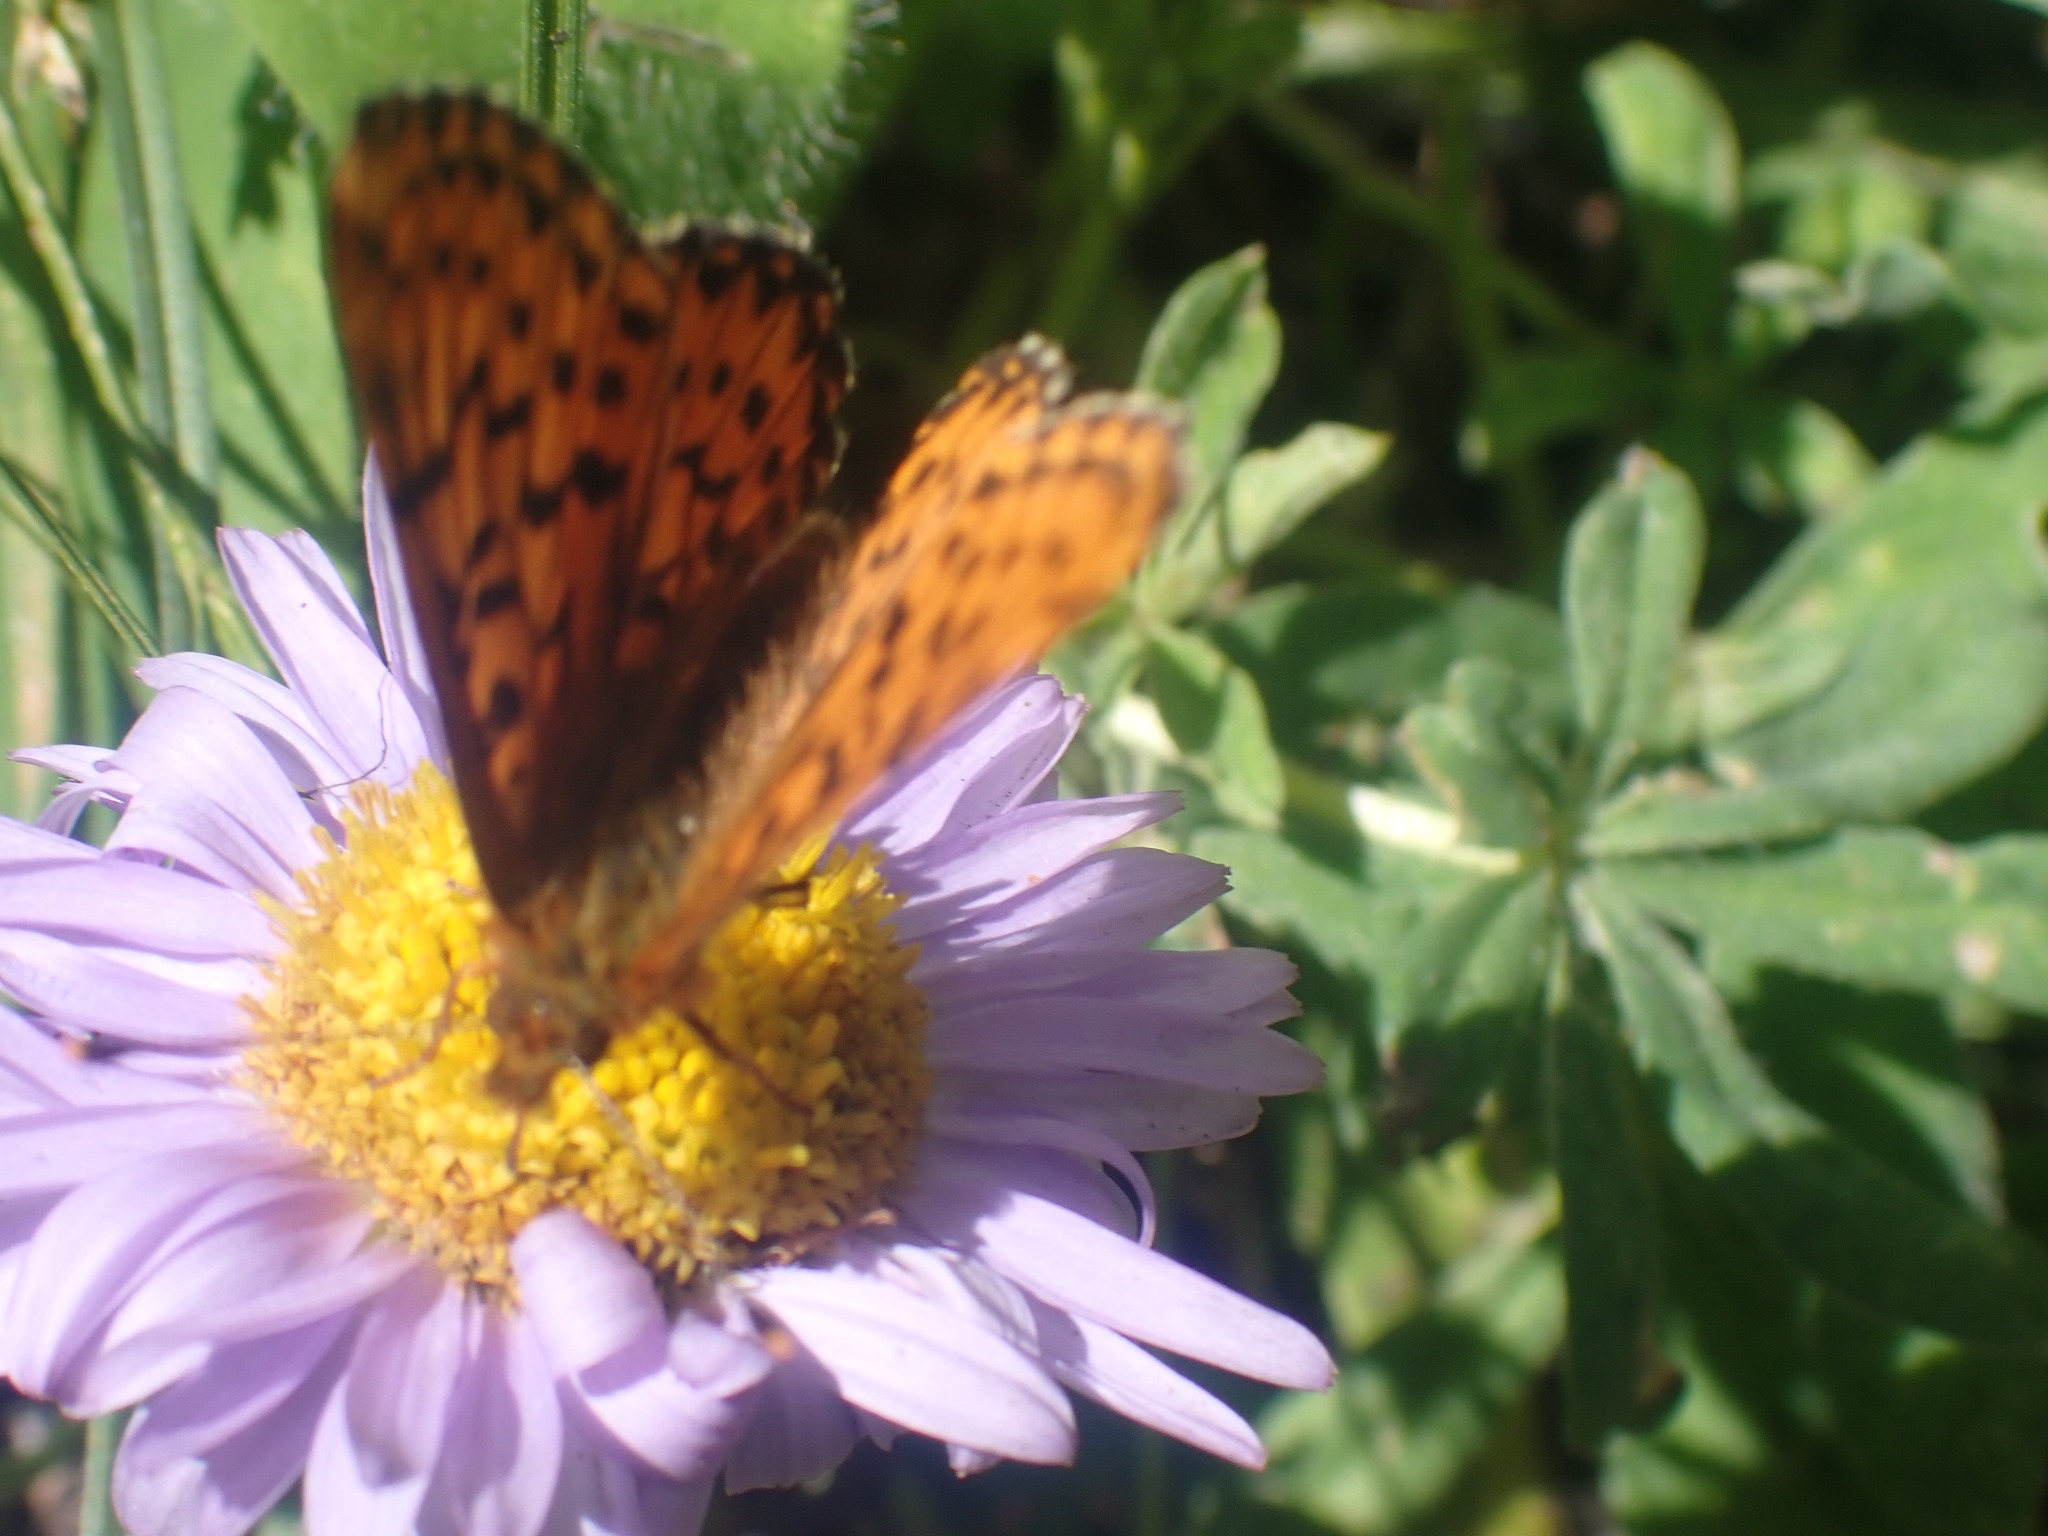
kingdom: Animalia
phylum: Arthropoda
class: Insecta
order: Lepidoptera
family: Nymphalidae
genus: Boloria
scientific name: Boloria chariclea
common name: Arctic fritillary
